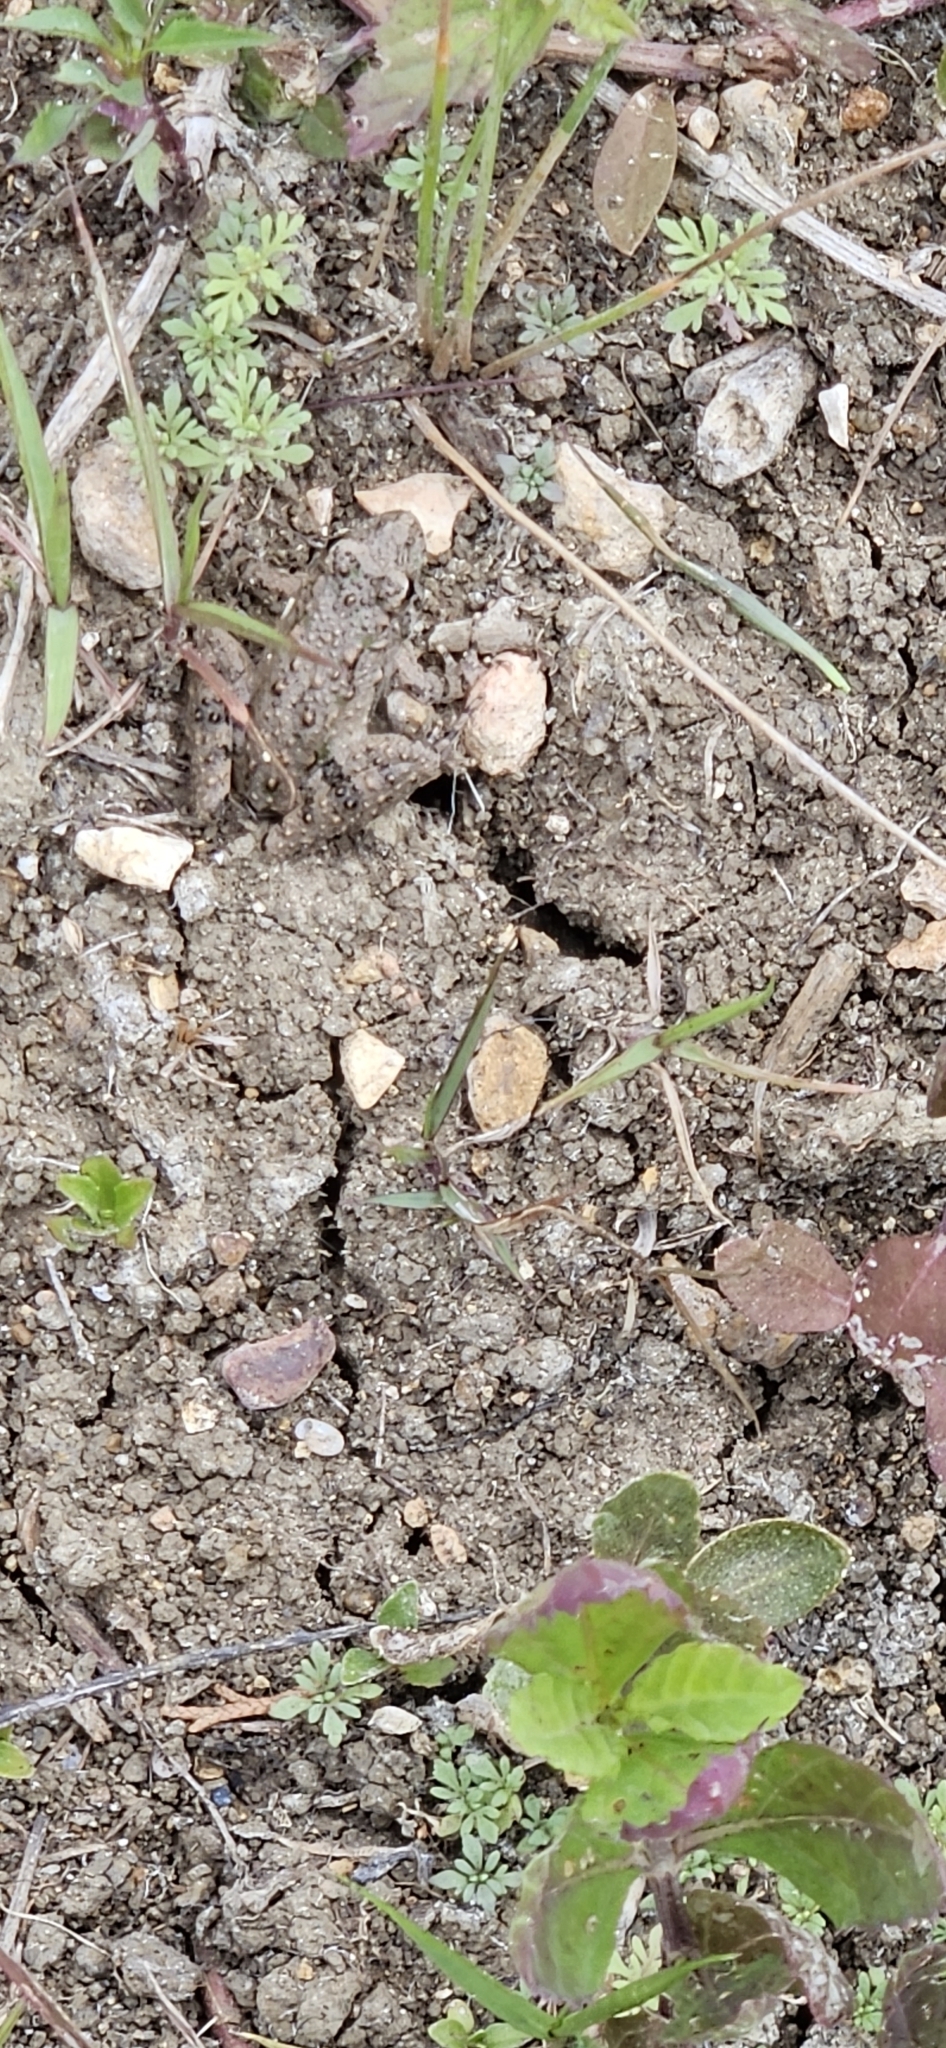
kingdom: Animalia
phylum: Chordata
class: Amphibia
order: Anura
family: Hylidae
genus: Acris
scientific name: Acris blanchardi
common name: Blanchard's cricket frog
